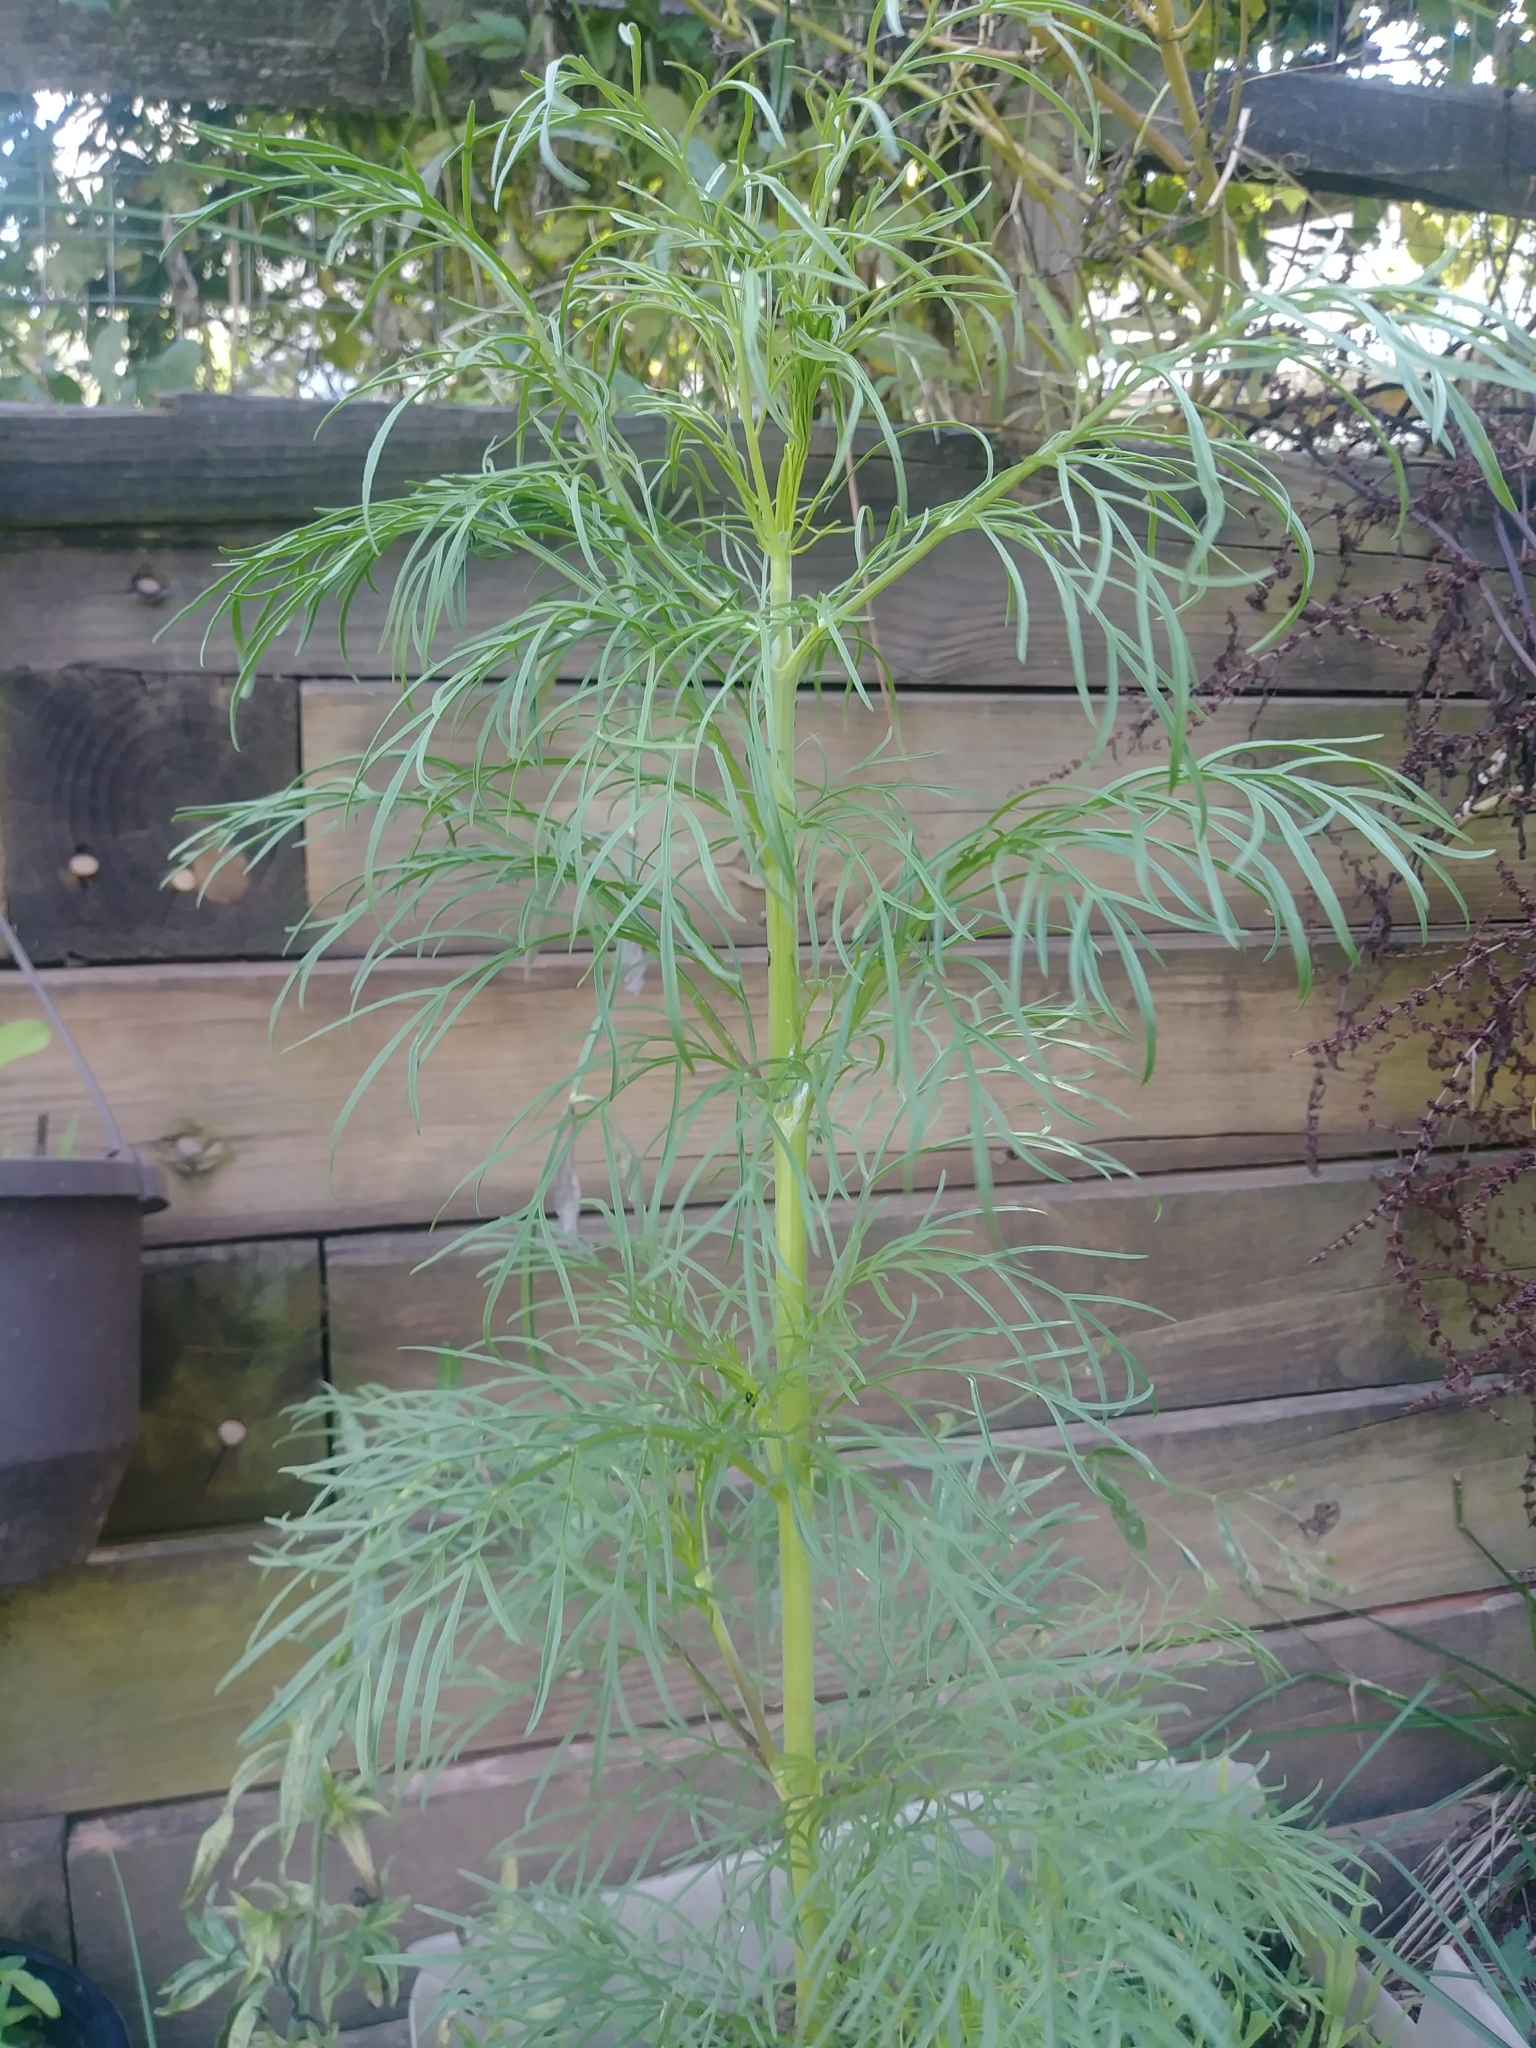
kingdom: Plantae
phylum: Tracheophyta
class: Magnoliopsida
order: Asterales
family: Asteraceae
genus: Cosmos
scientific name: Cosmos bipinnatus
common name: Garden cosmos
